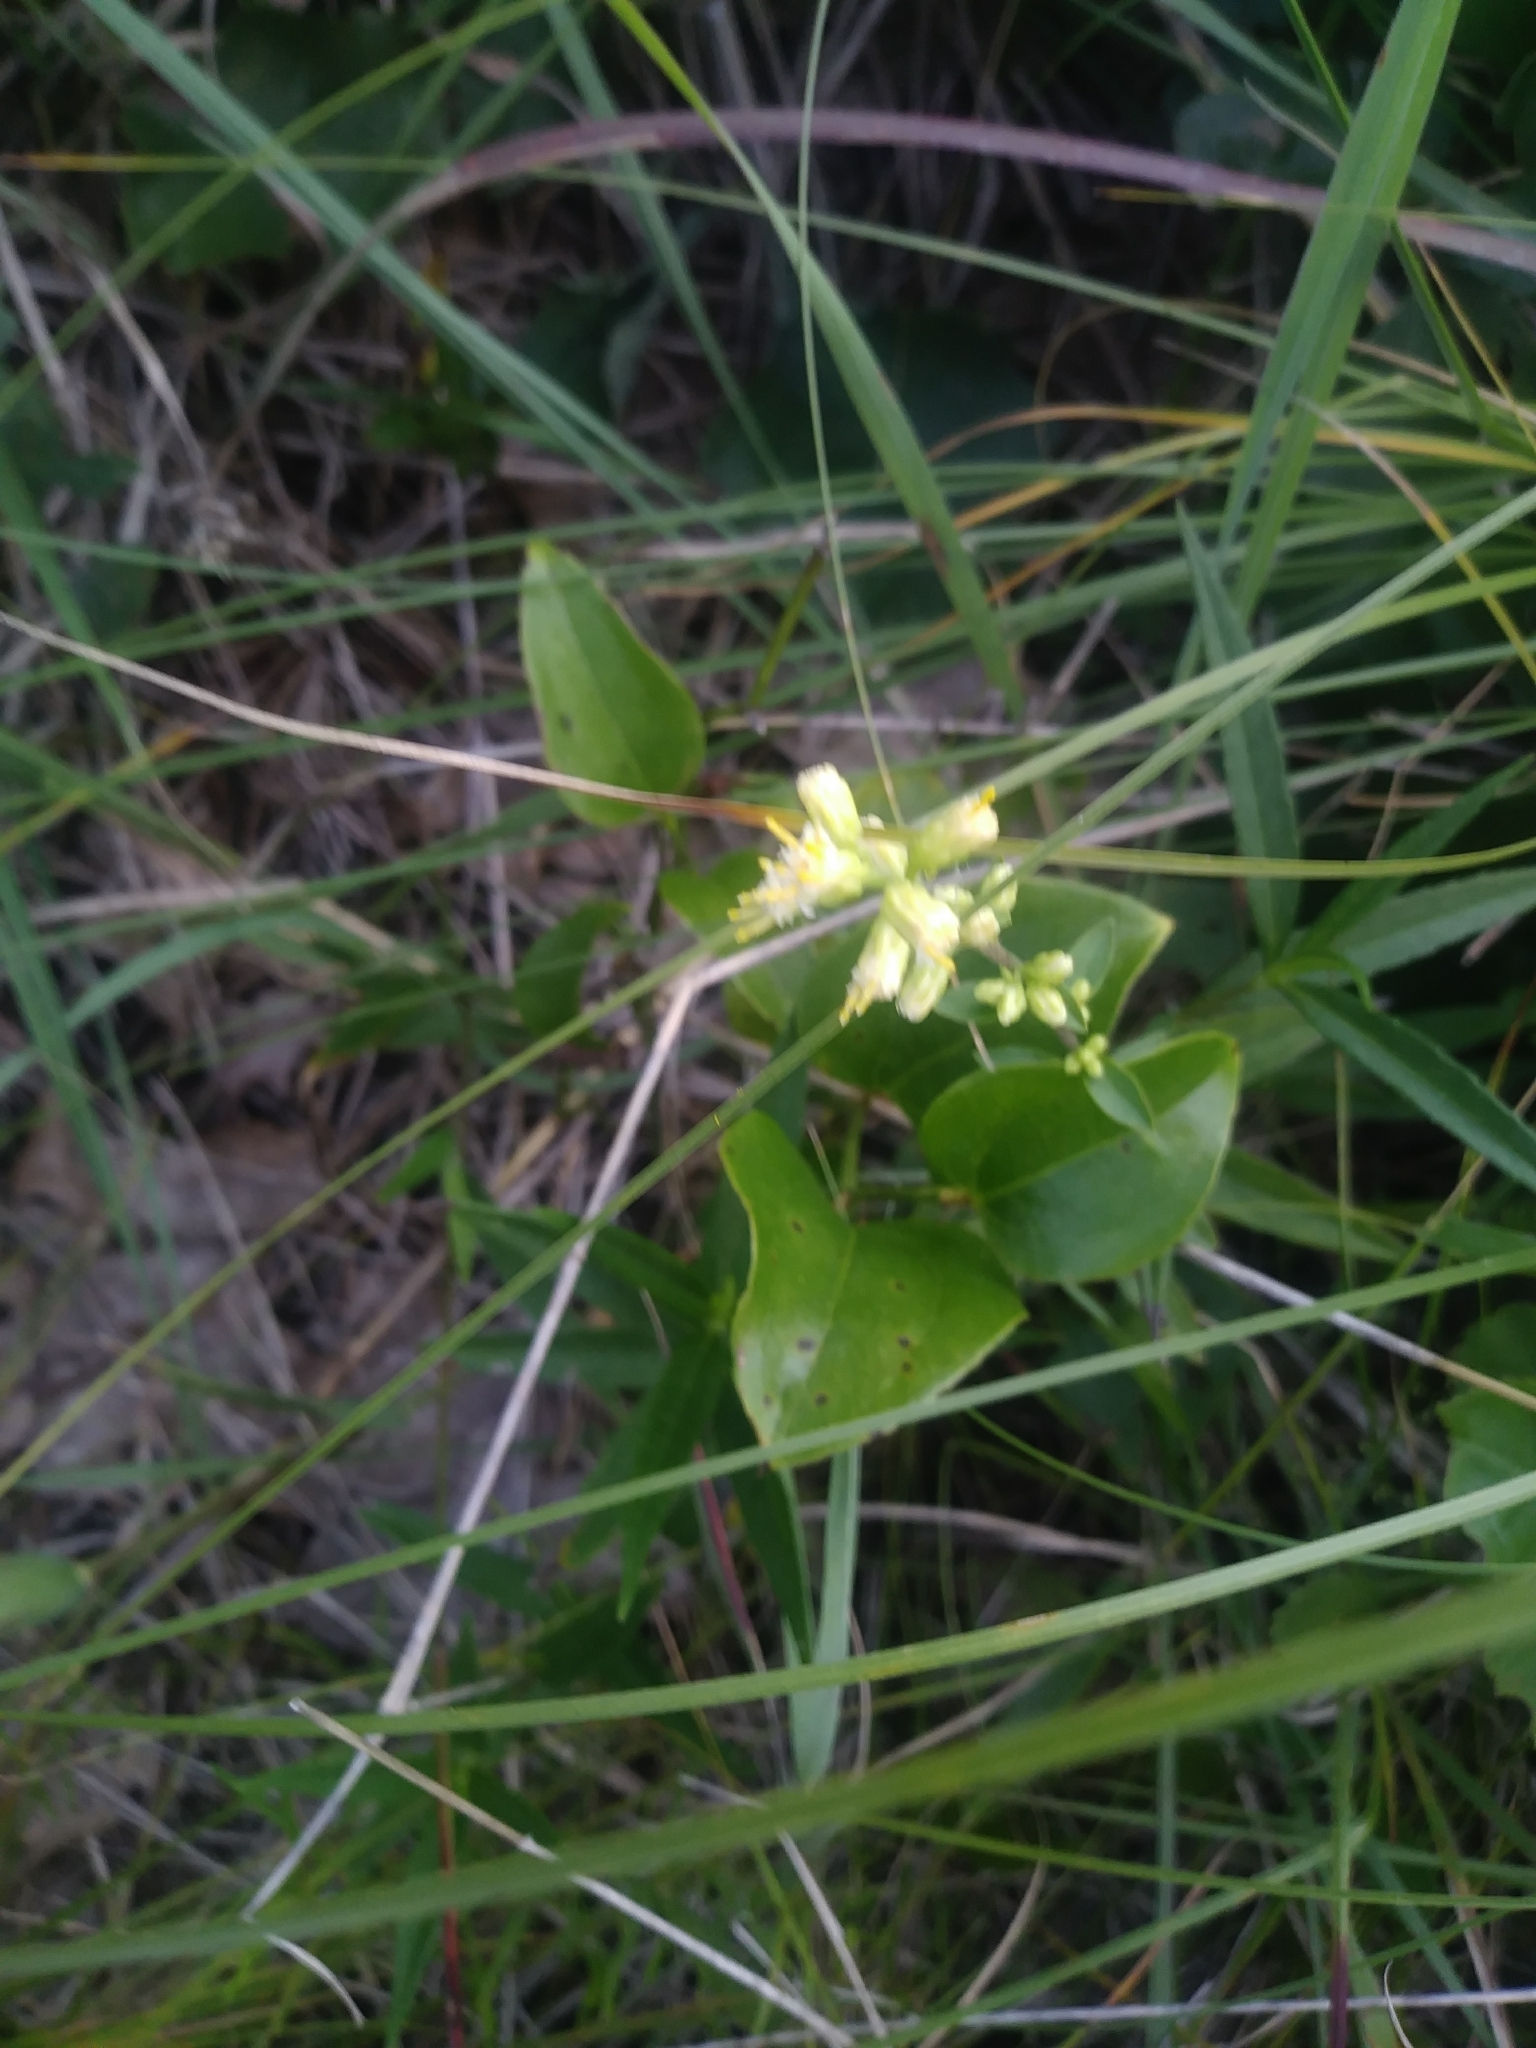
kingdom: Plantae
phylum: Tracheophyta
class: Magnoliopsida
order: Asterales
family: Asteraceae
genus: Solidago
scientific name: Solidago bicolor
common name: Silverrod
